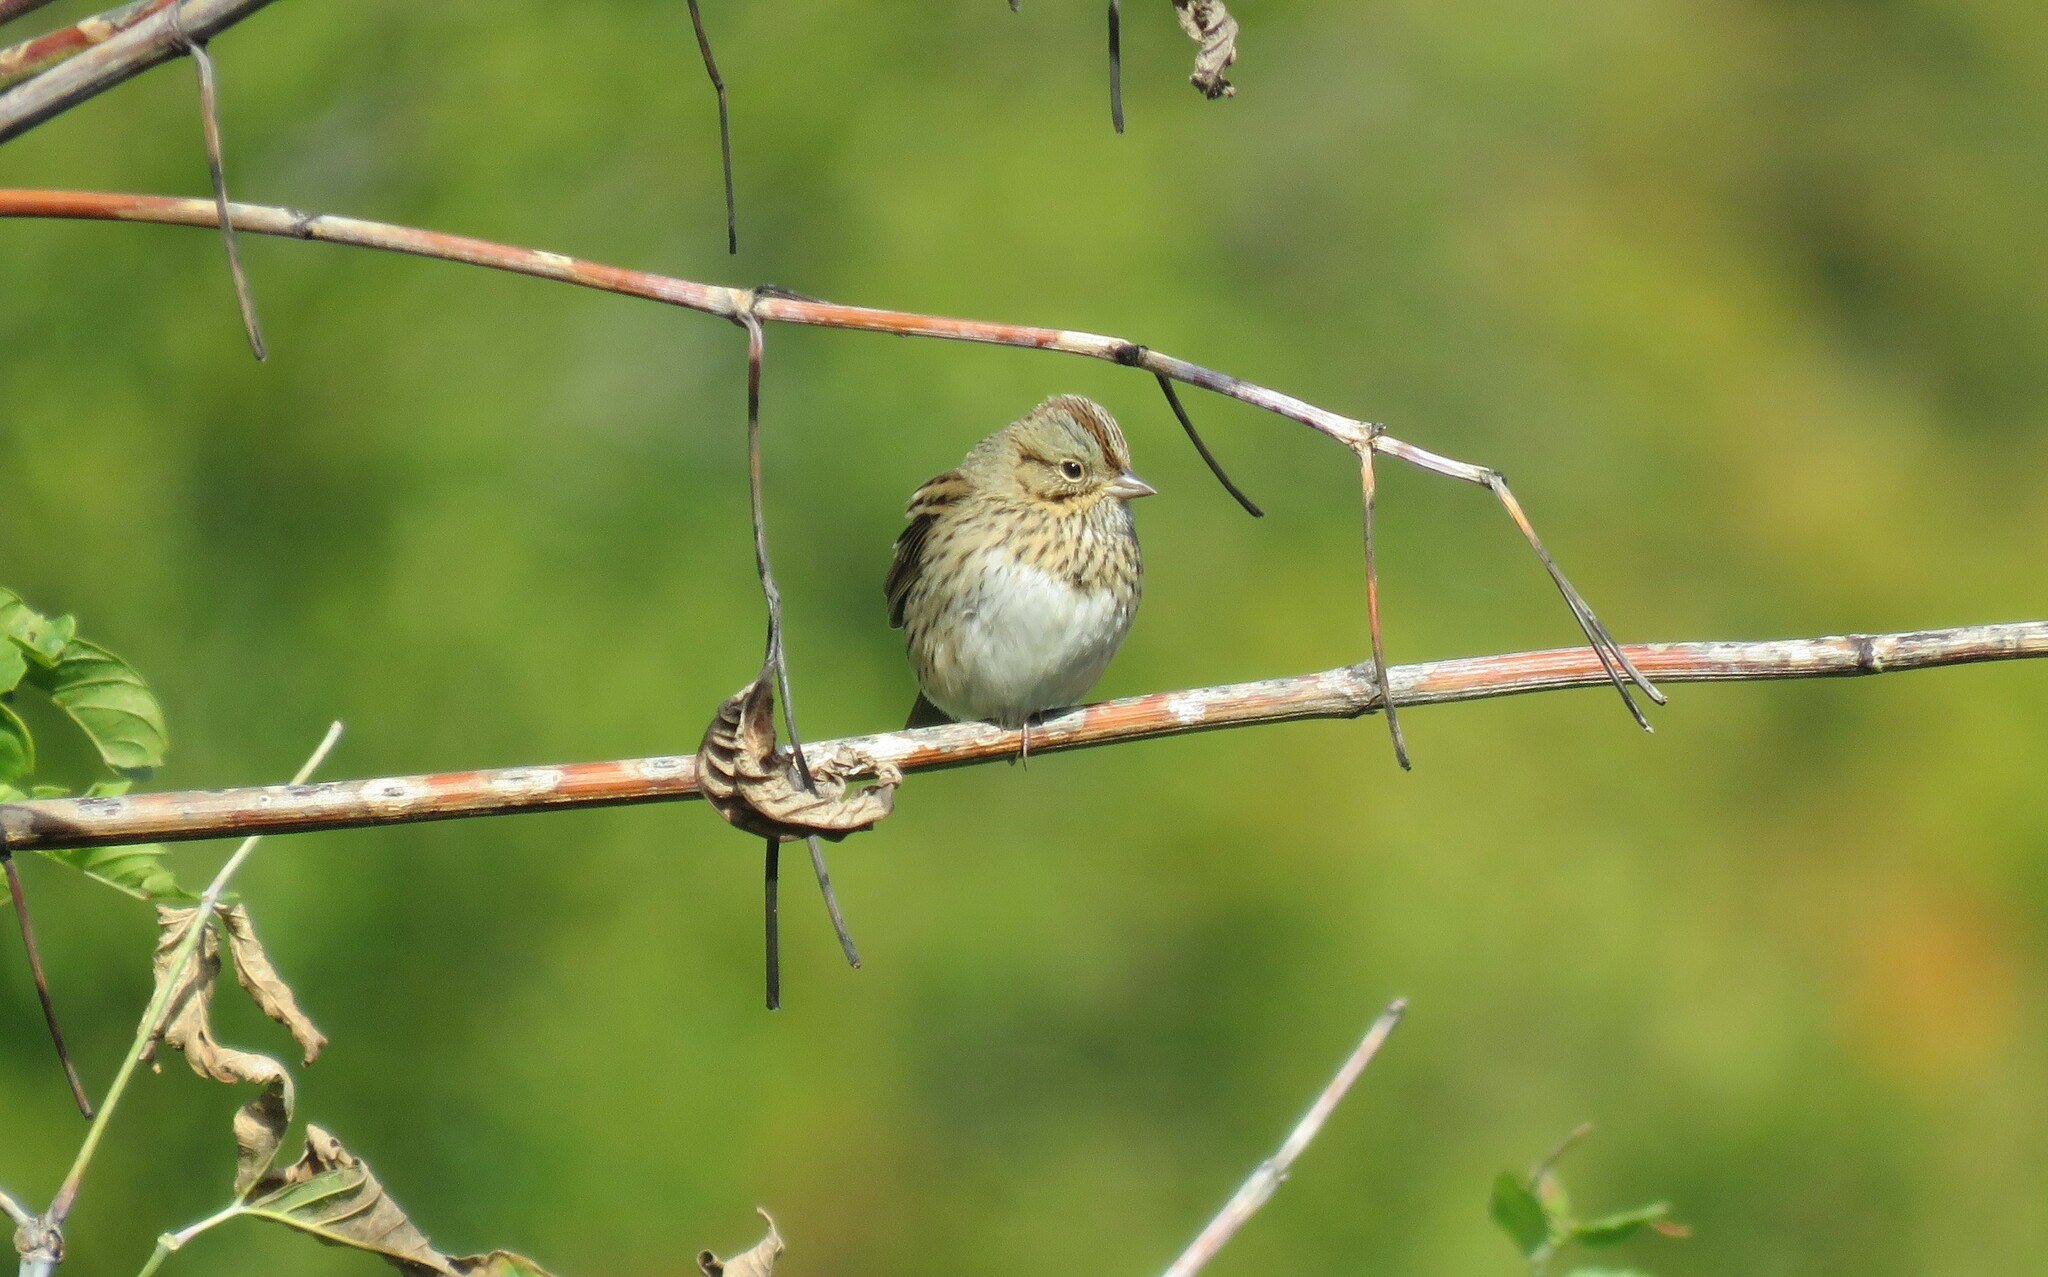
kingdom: Animalia
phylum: Chordata
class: Aves
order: Passeriformes
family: Passerellidae
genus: Melospiza
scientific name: Melospiza lincolnii
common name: Lincoln's sparrow
